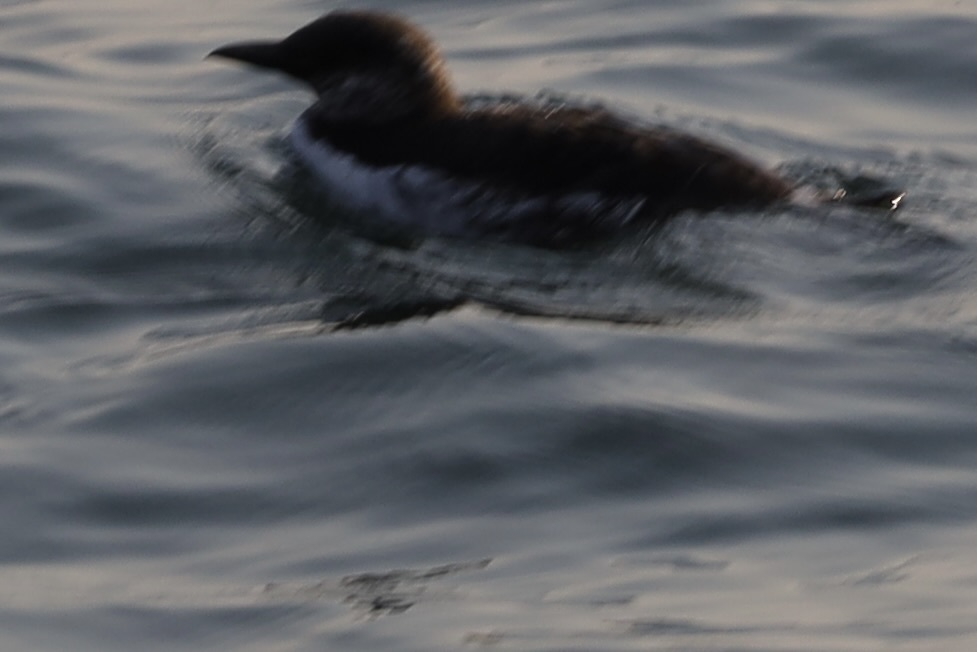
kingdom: Animalia
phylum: Chordata
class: Aves
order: Charadriiformes
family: Alcidae
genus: Uria
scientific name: Uria aalge
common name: Common murre
